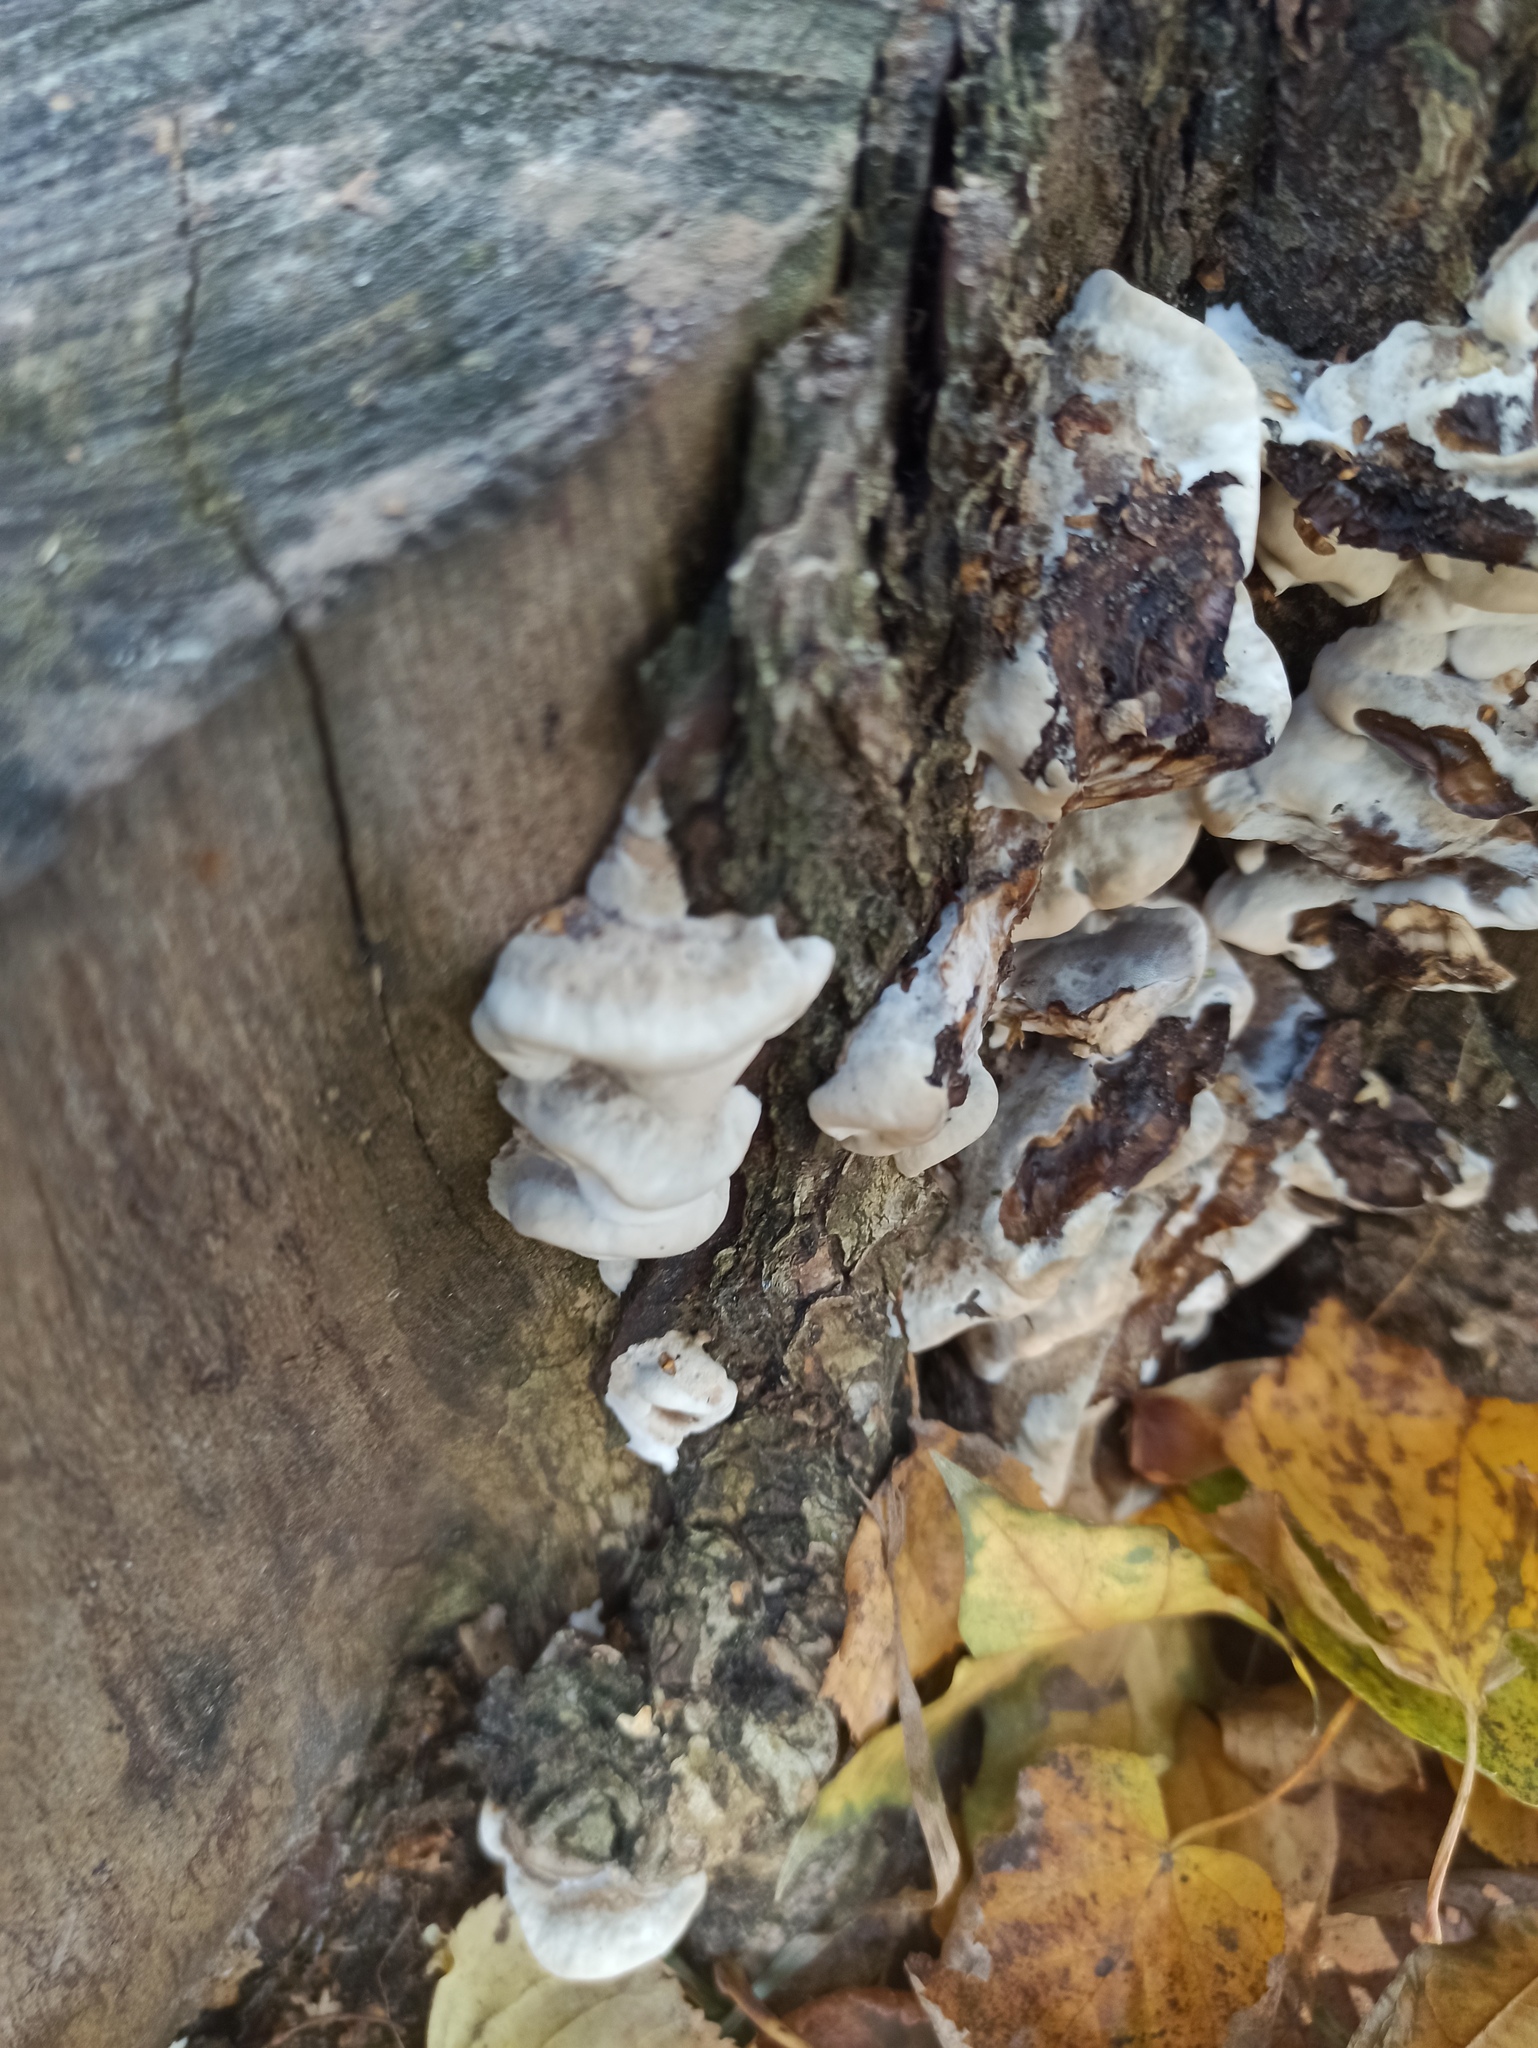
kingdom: Fungi
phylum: Basidiomycota
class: Agaricomycetes
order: Polyporales
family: Phanerochaetaceae
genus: Bjerkandera
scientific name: Bjerkandera adusta
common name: Smoky bracket
